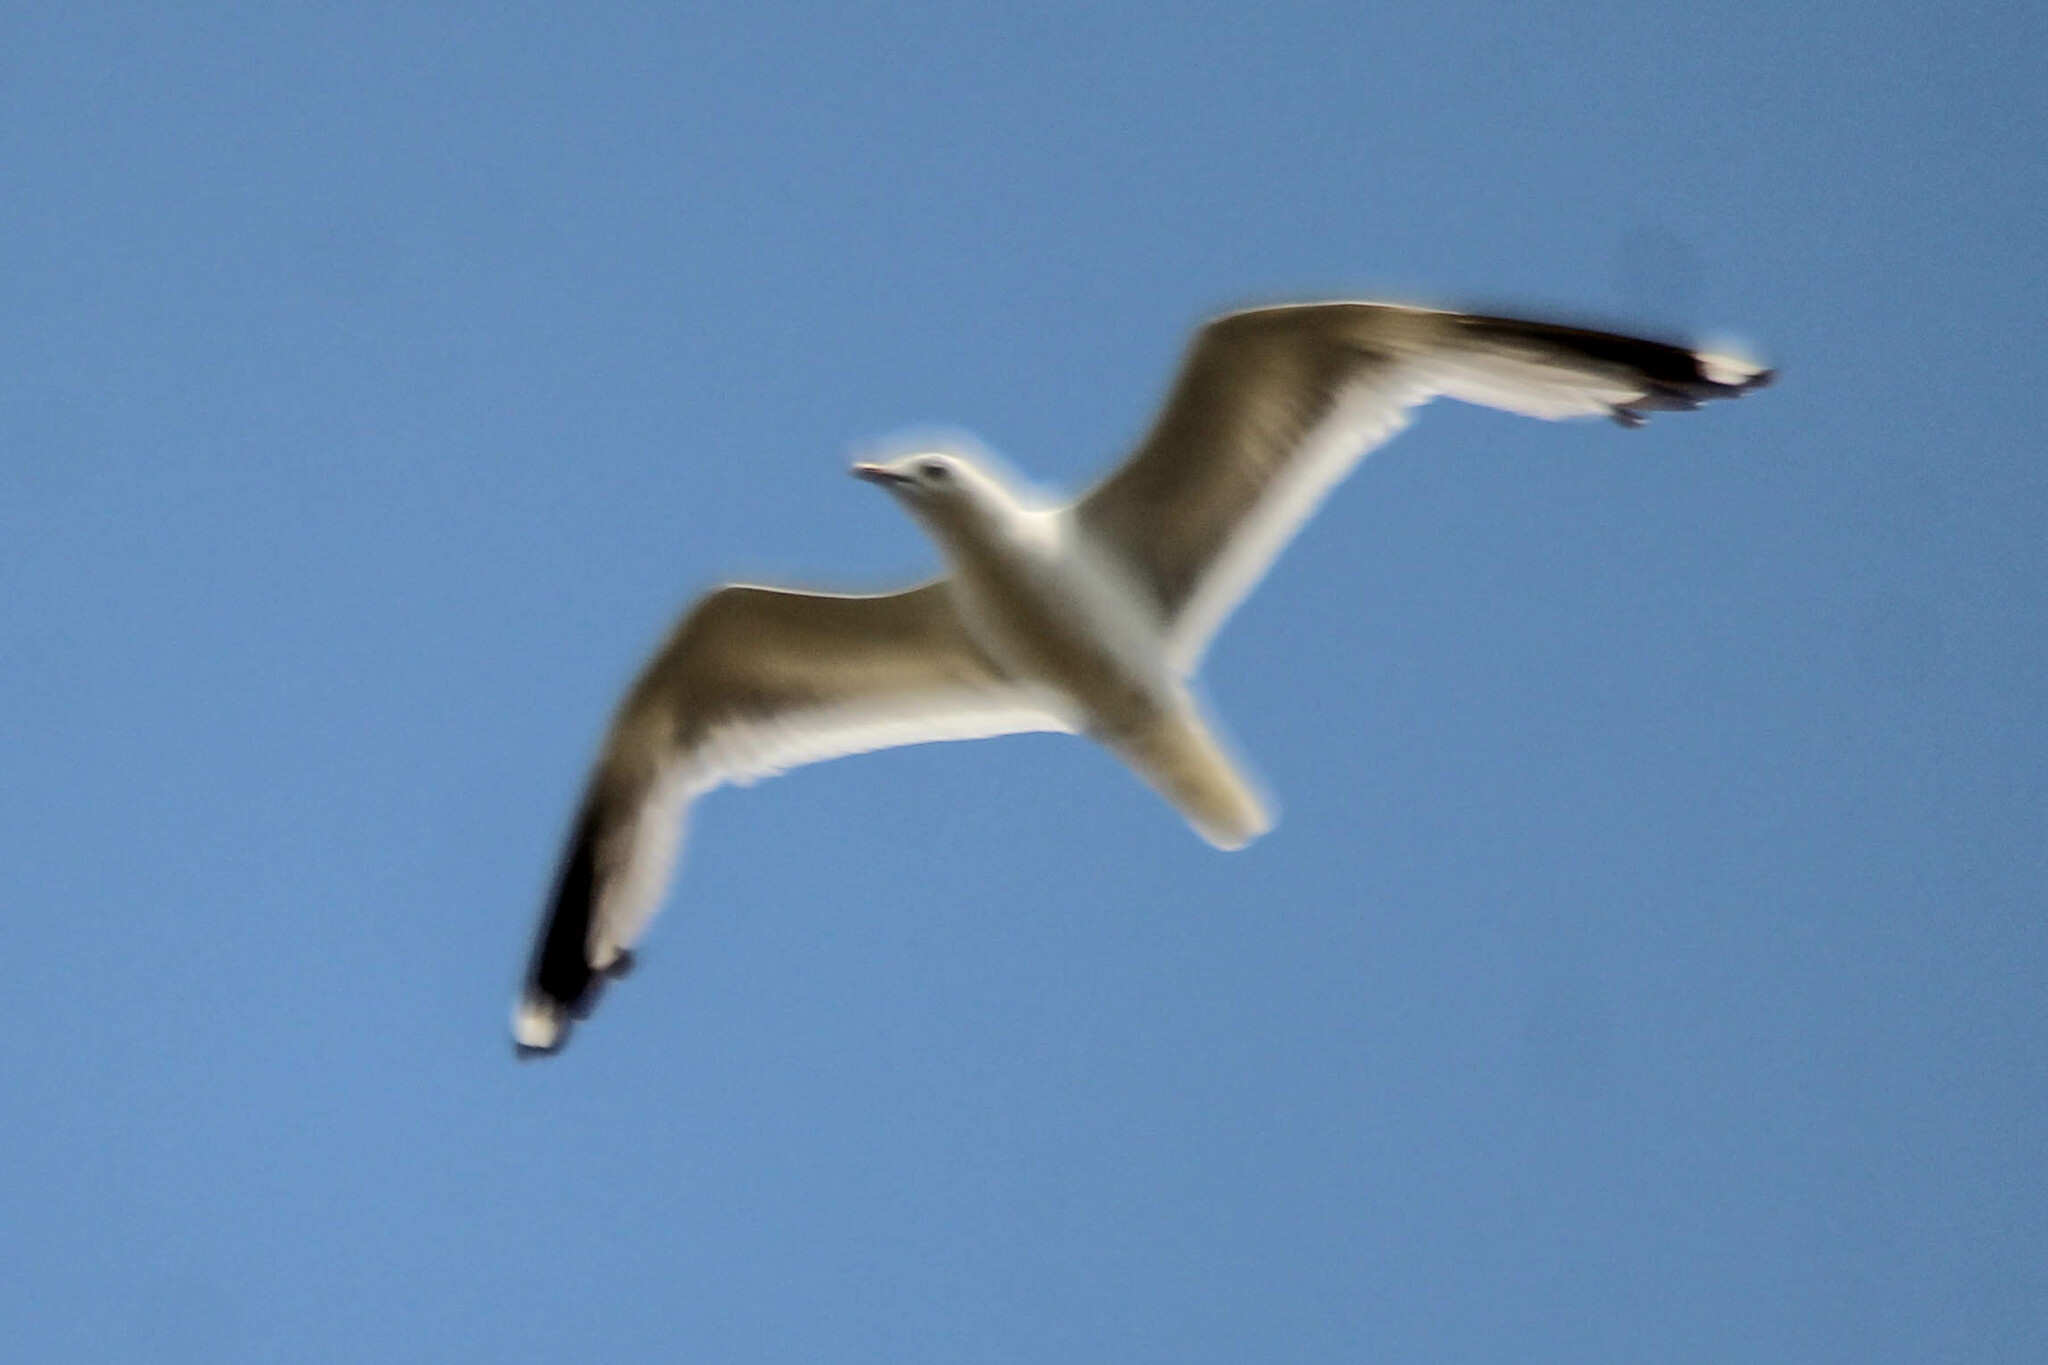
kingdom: Animalia
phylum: Chordata
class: Aves
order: Charadriiformes
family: Laridae
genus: Larus
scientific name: Larus canus
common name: Mew gull
